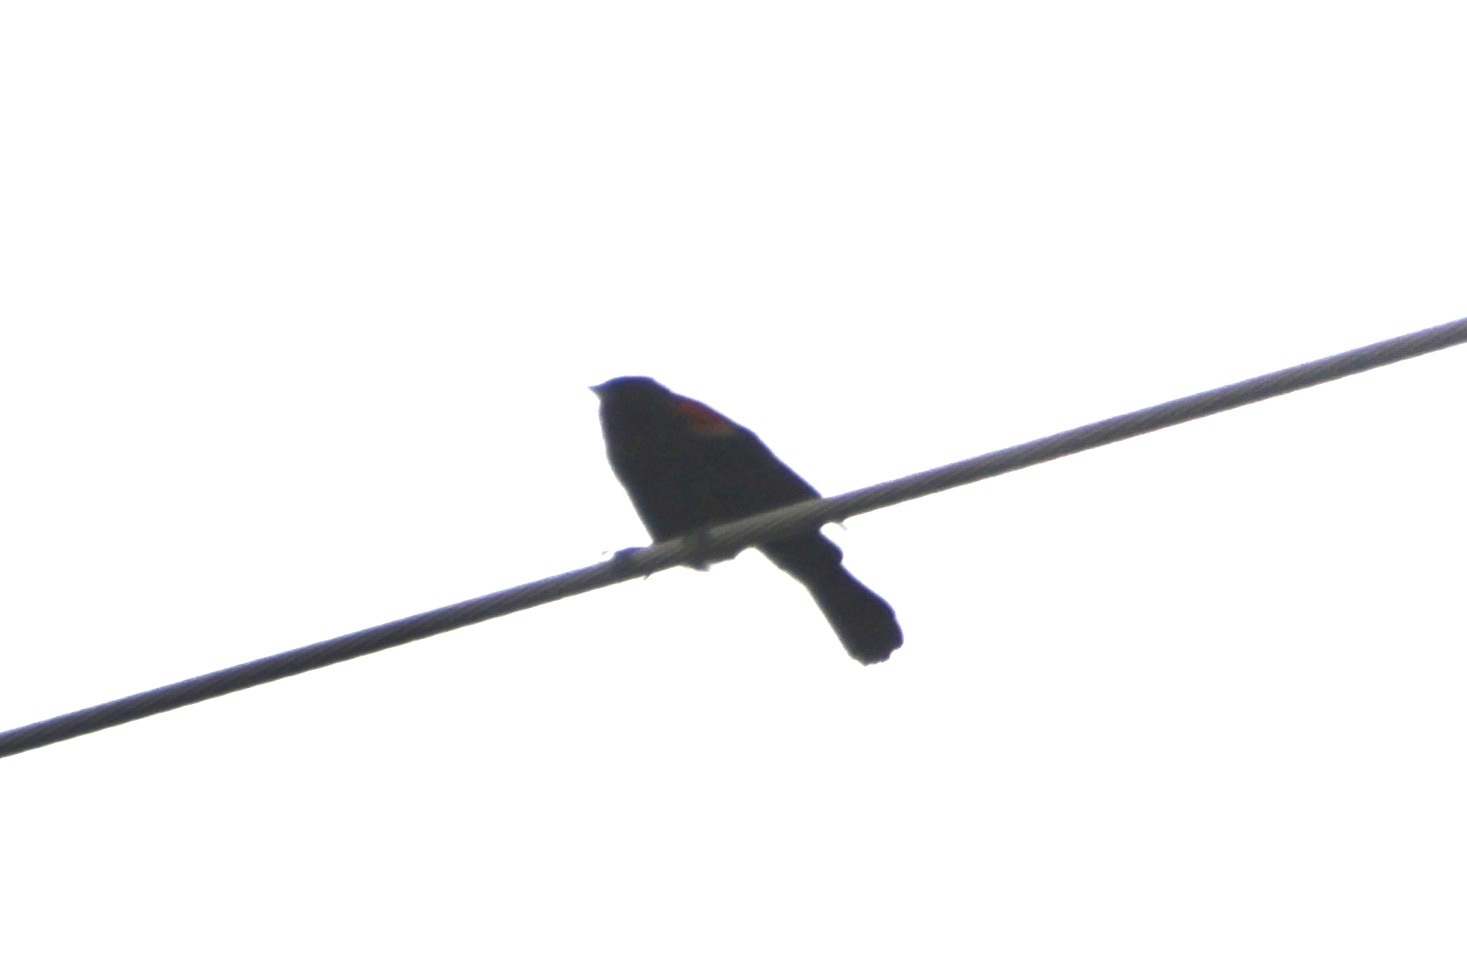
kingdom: Animalia
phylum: Chordata
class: Aves
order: Passeriformes
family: Icteridae
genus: Agelaius
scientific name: Agelaius phoeniceus
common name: Red-winged blackbird
